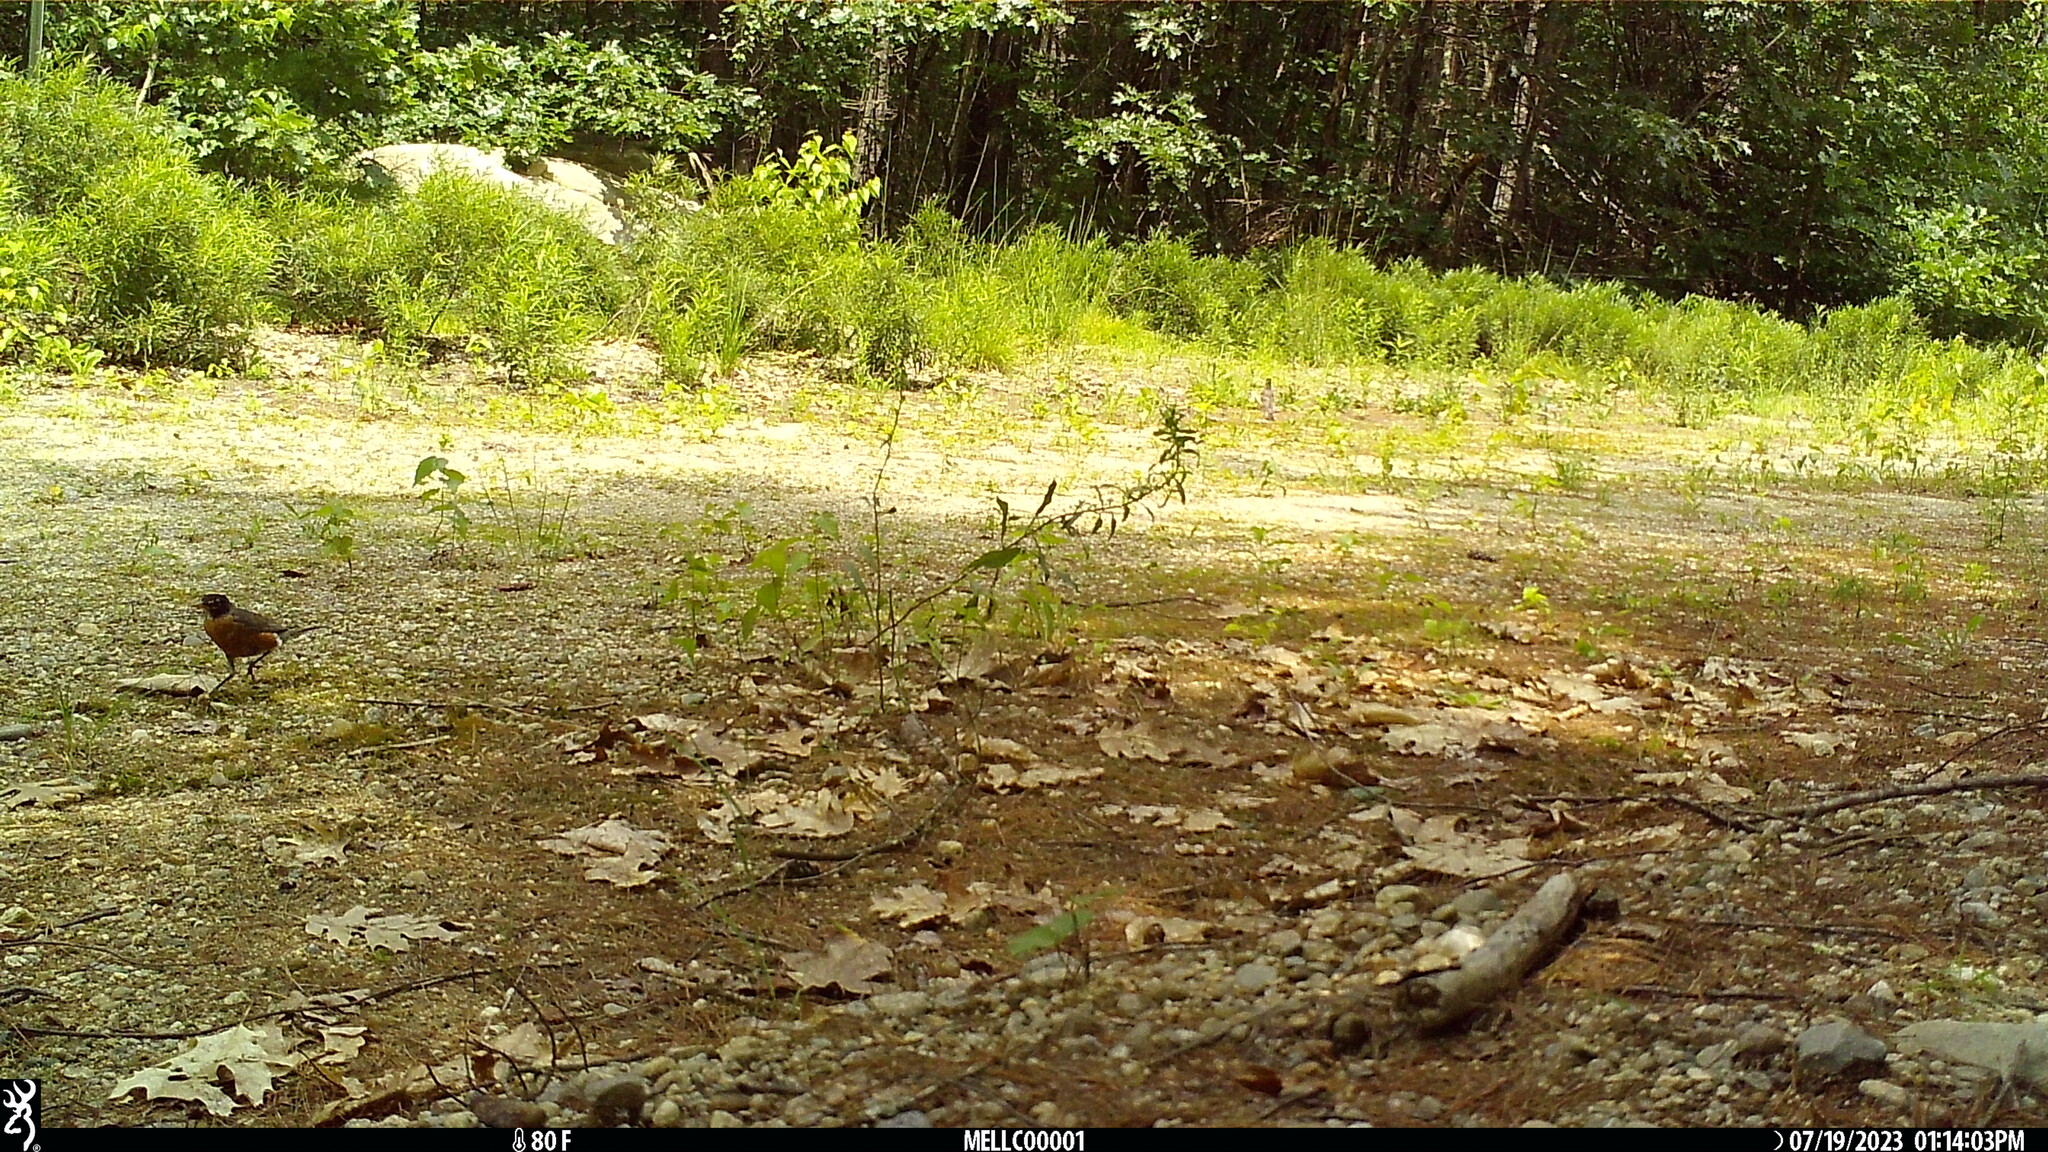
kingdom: Animalia
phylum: Chordata
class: Aves
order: Passeriformes
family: Turdidae
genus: Turdus
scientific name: Turdus migratorius
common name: American robin
